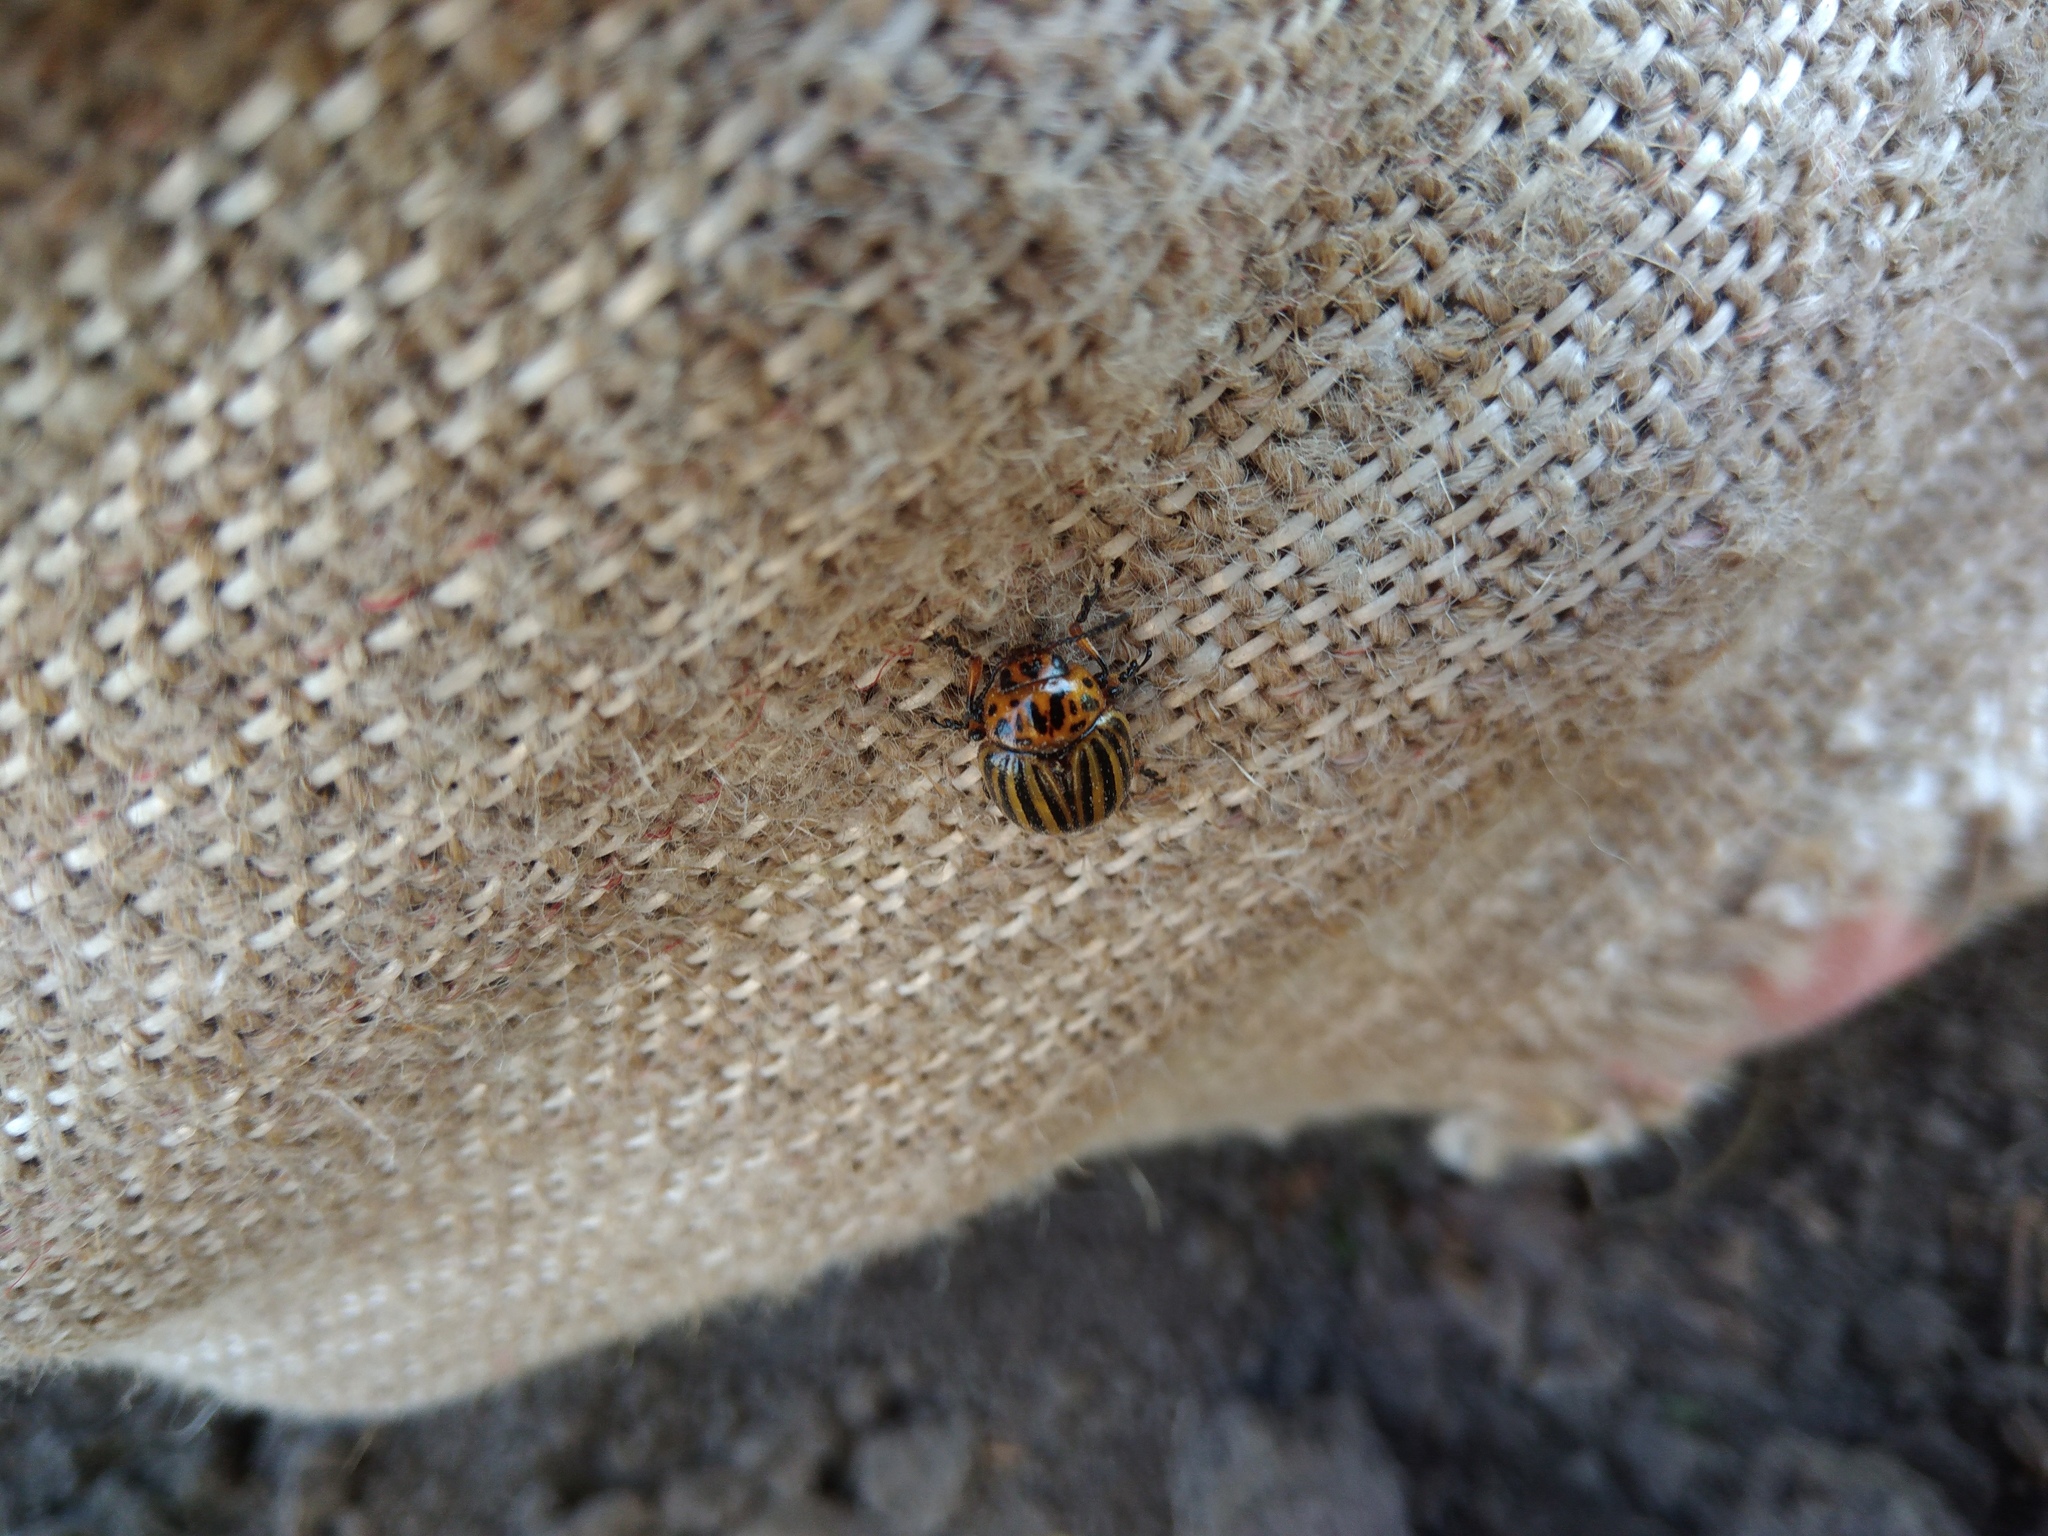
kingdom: Animalia
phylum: Arthropoda
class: Insecta
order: Coleoptera
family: Chrysomelidae
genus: Leptinotarsa
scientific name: Leptinotarsa decemlineata
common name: Colorado potato beetle
